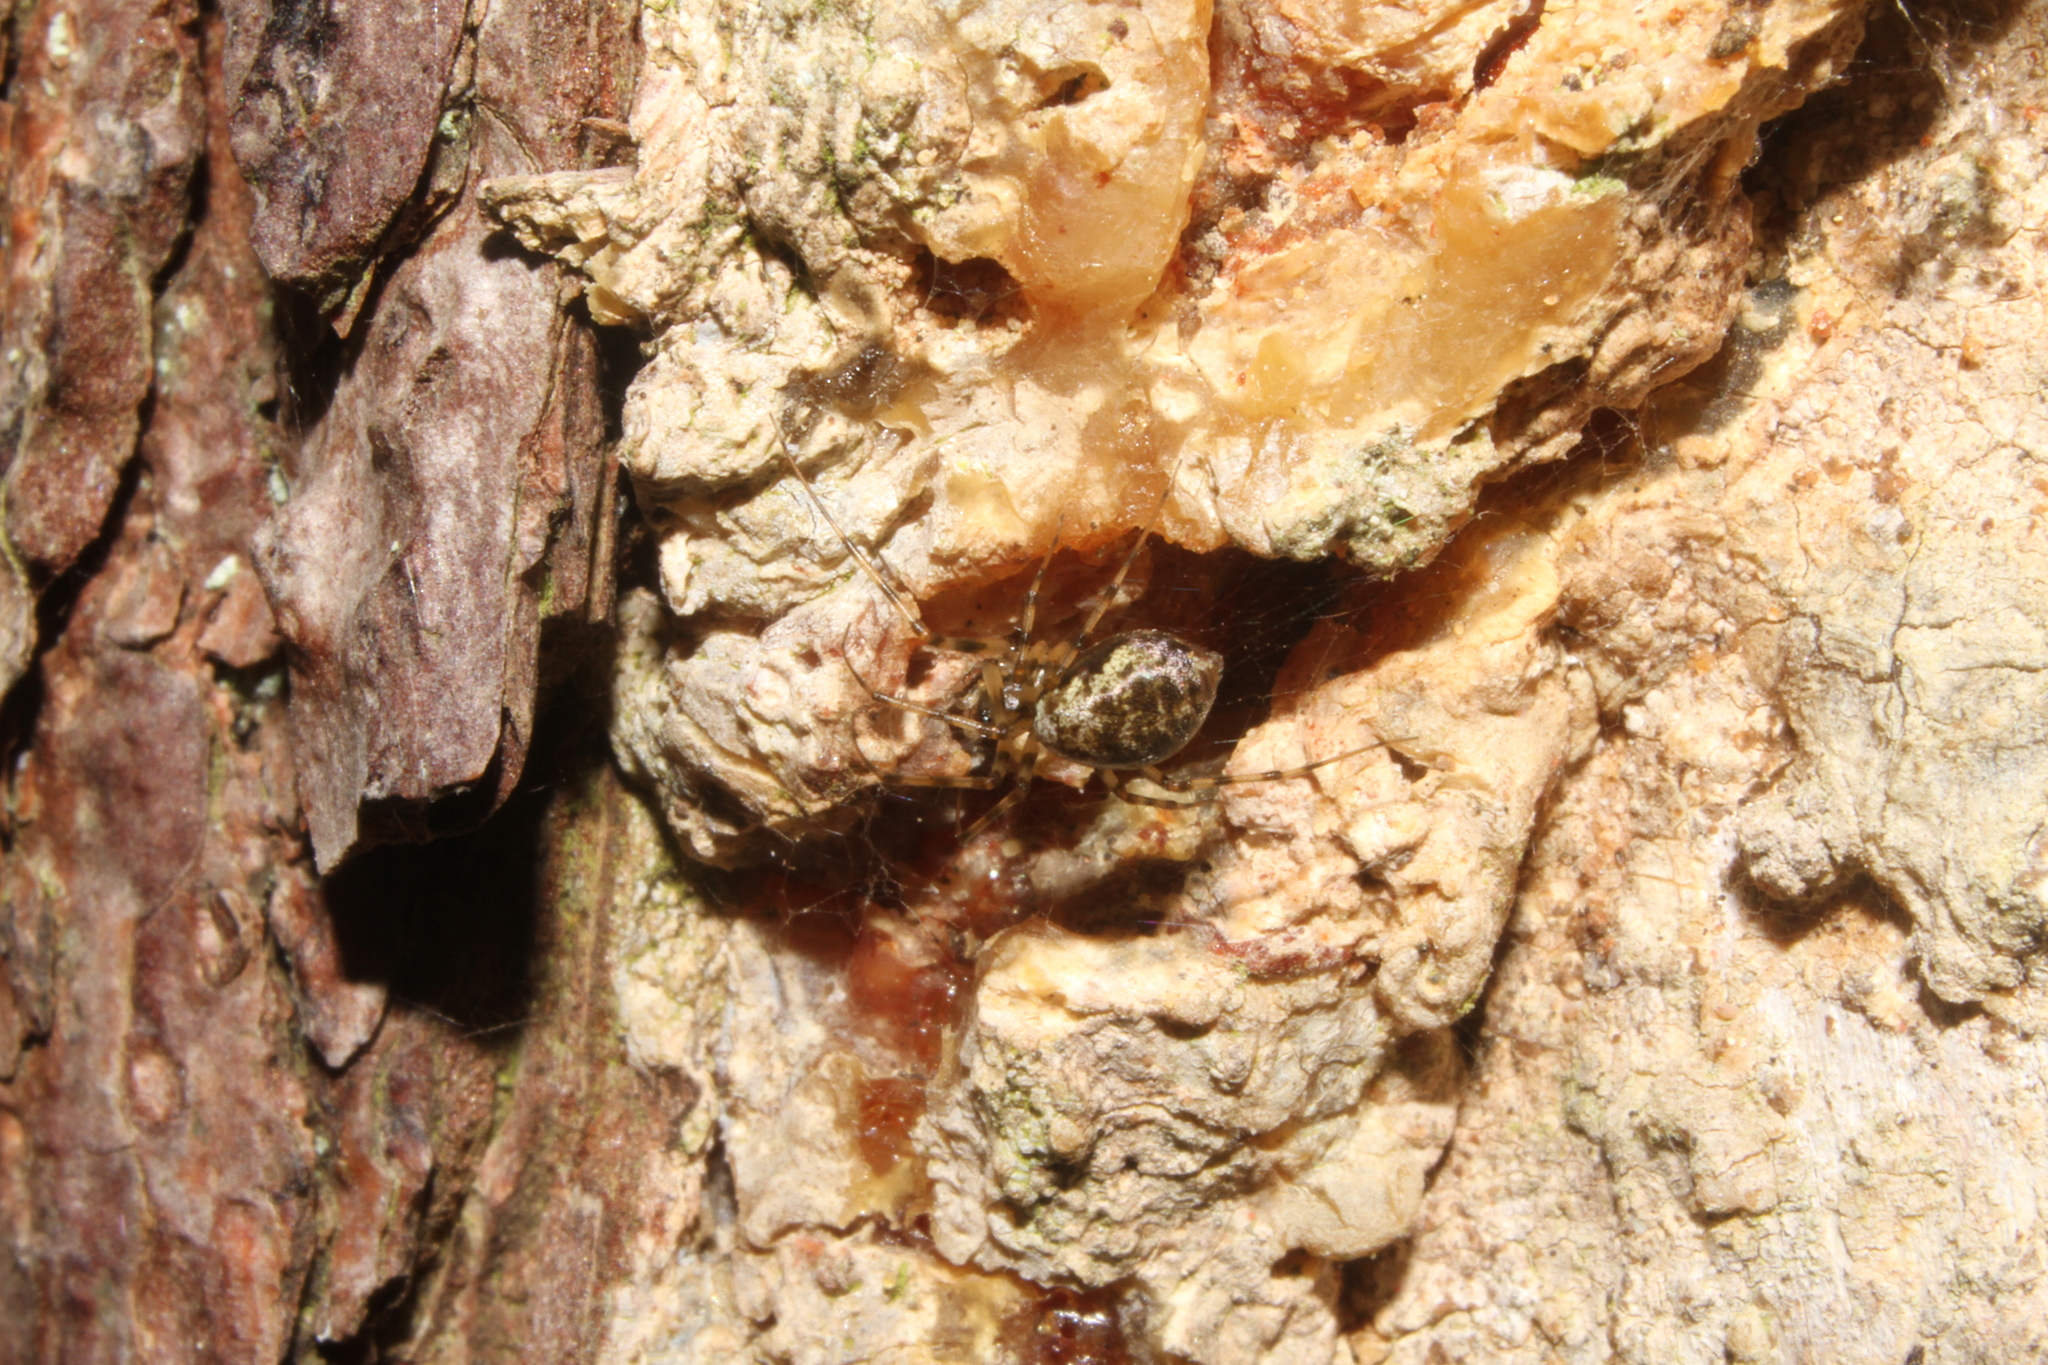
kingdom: Animalia
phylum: Arthropoda
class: Arachnida
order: Araneae
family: Linyphiidae
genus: Drapetisca
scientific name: Drapetisca socialis
